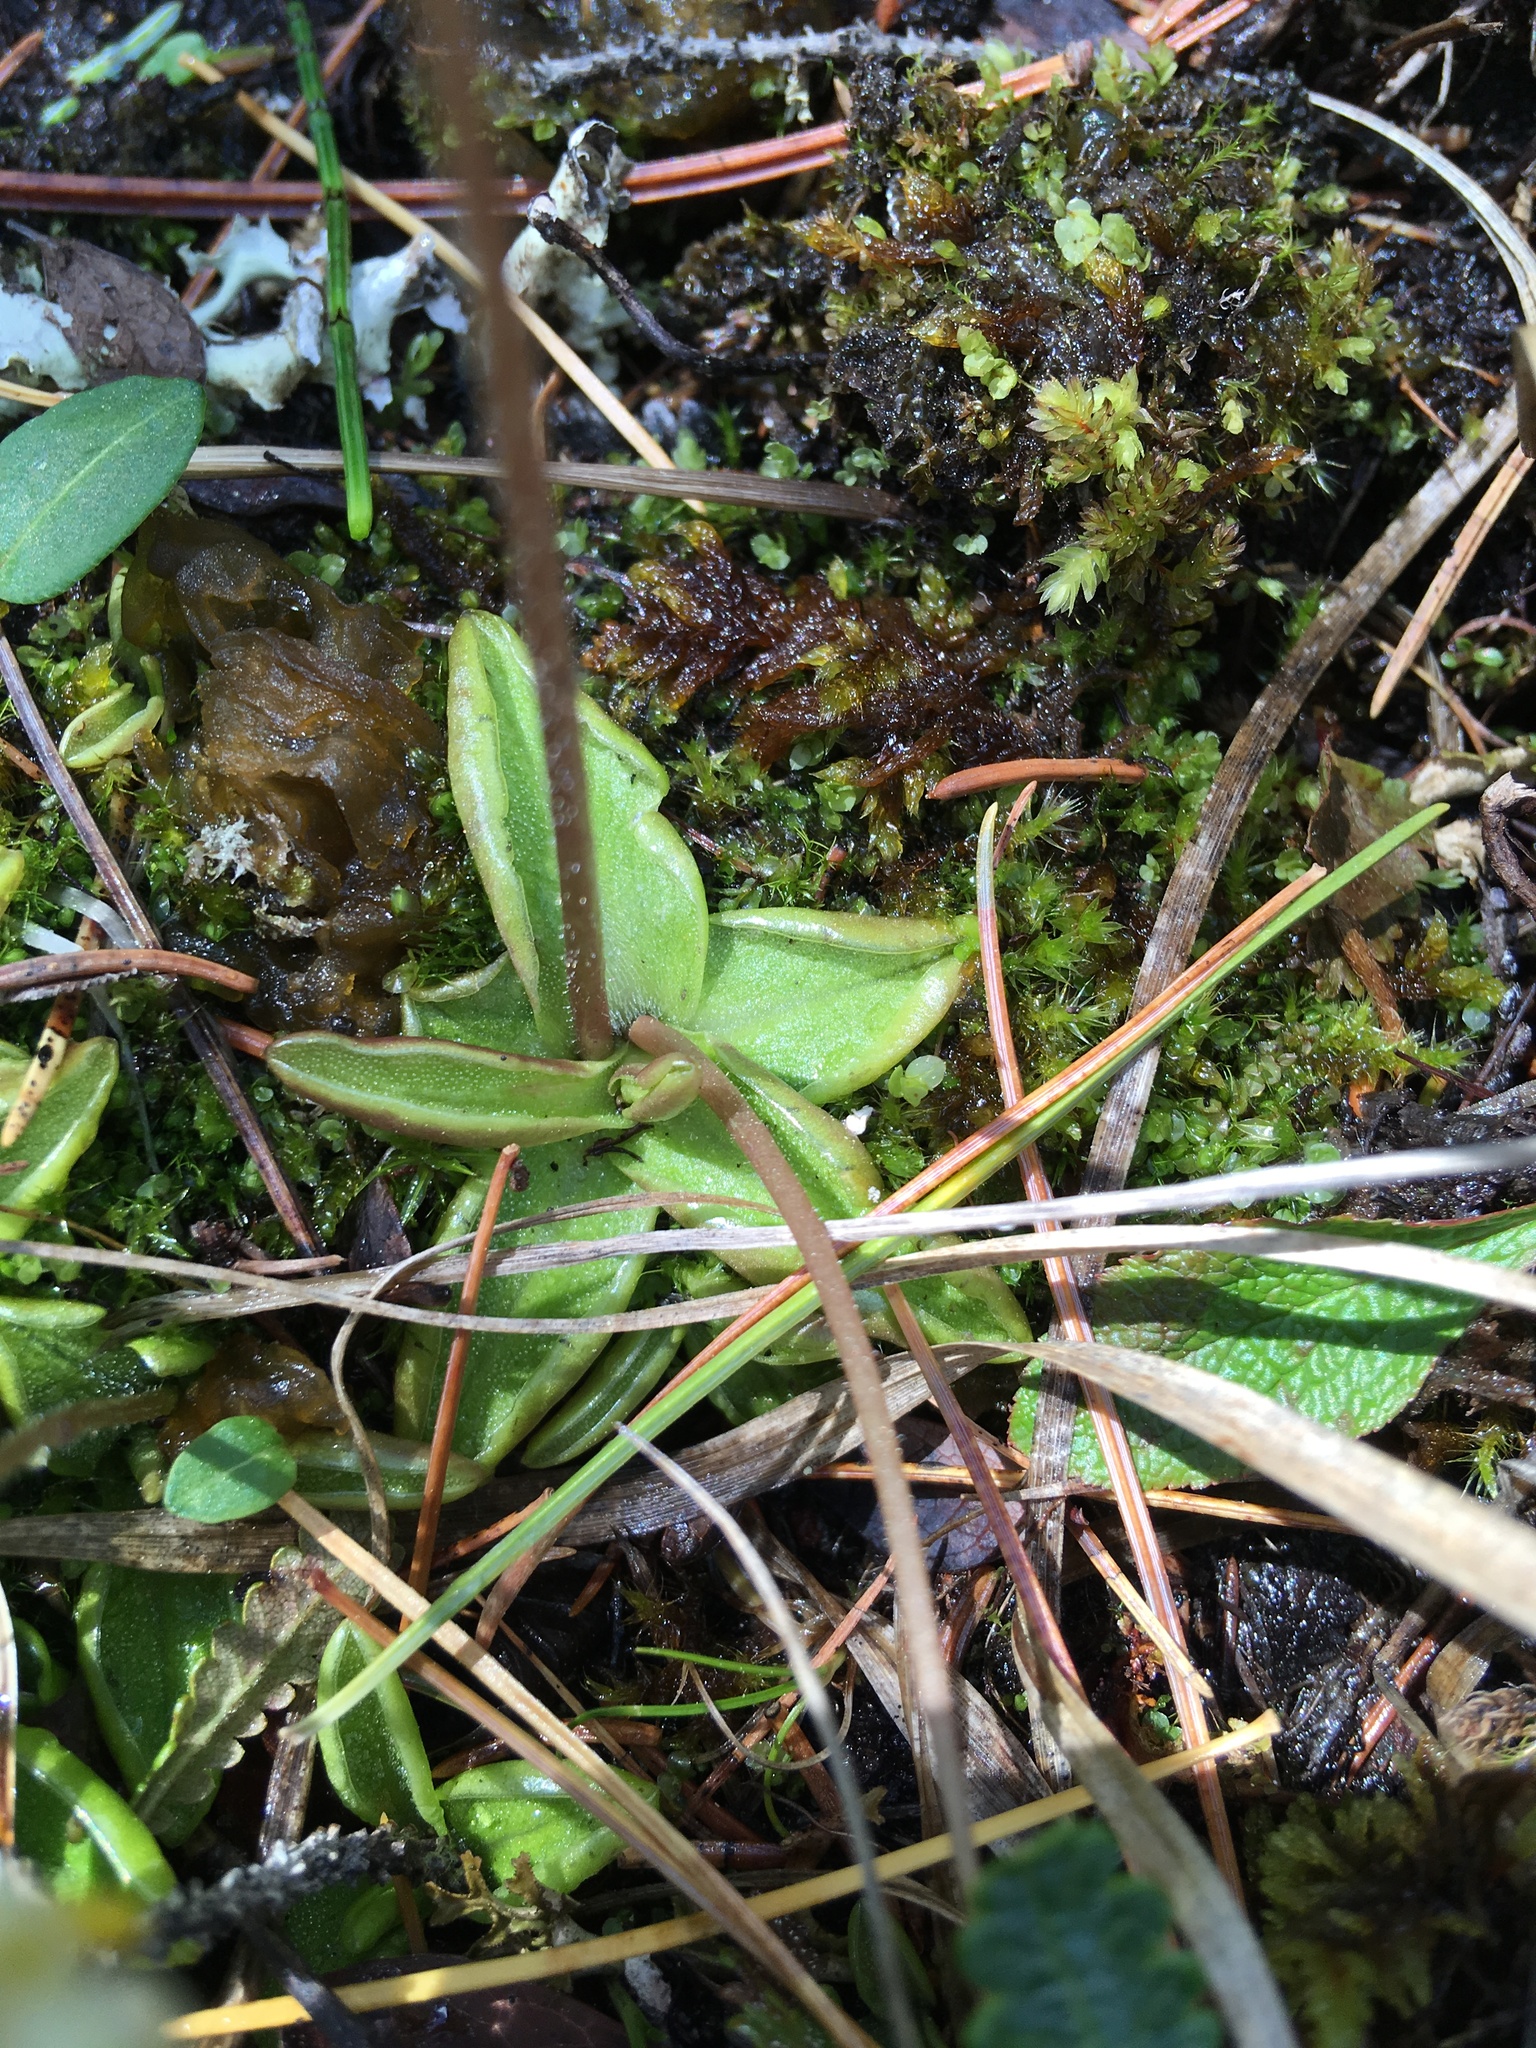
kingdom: Plantae
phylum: Tracheophyta
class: Magnoliopsida
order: Lamiales
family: Lentibulariaceae
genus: Pinguicula
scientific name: Pinguicula alpina
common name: Alpine butterwort
